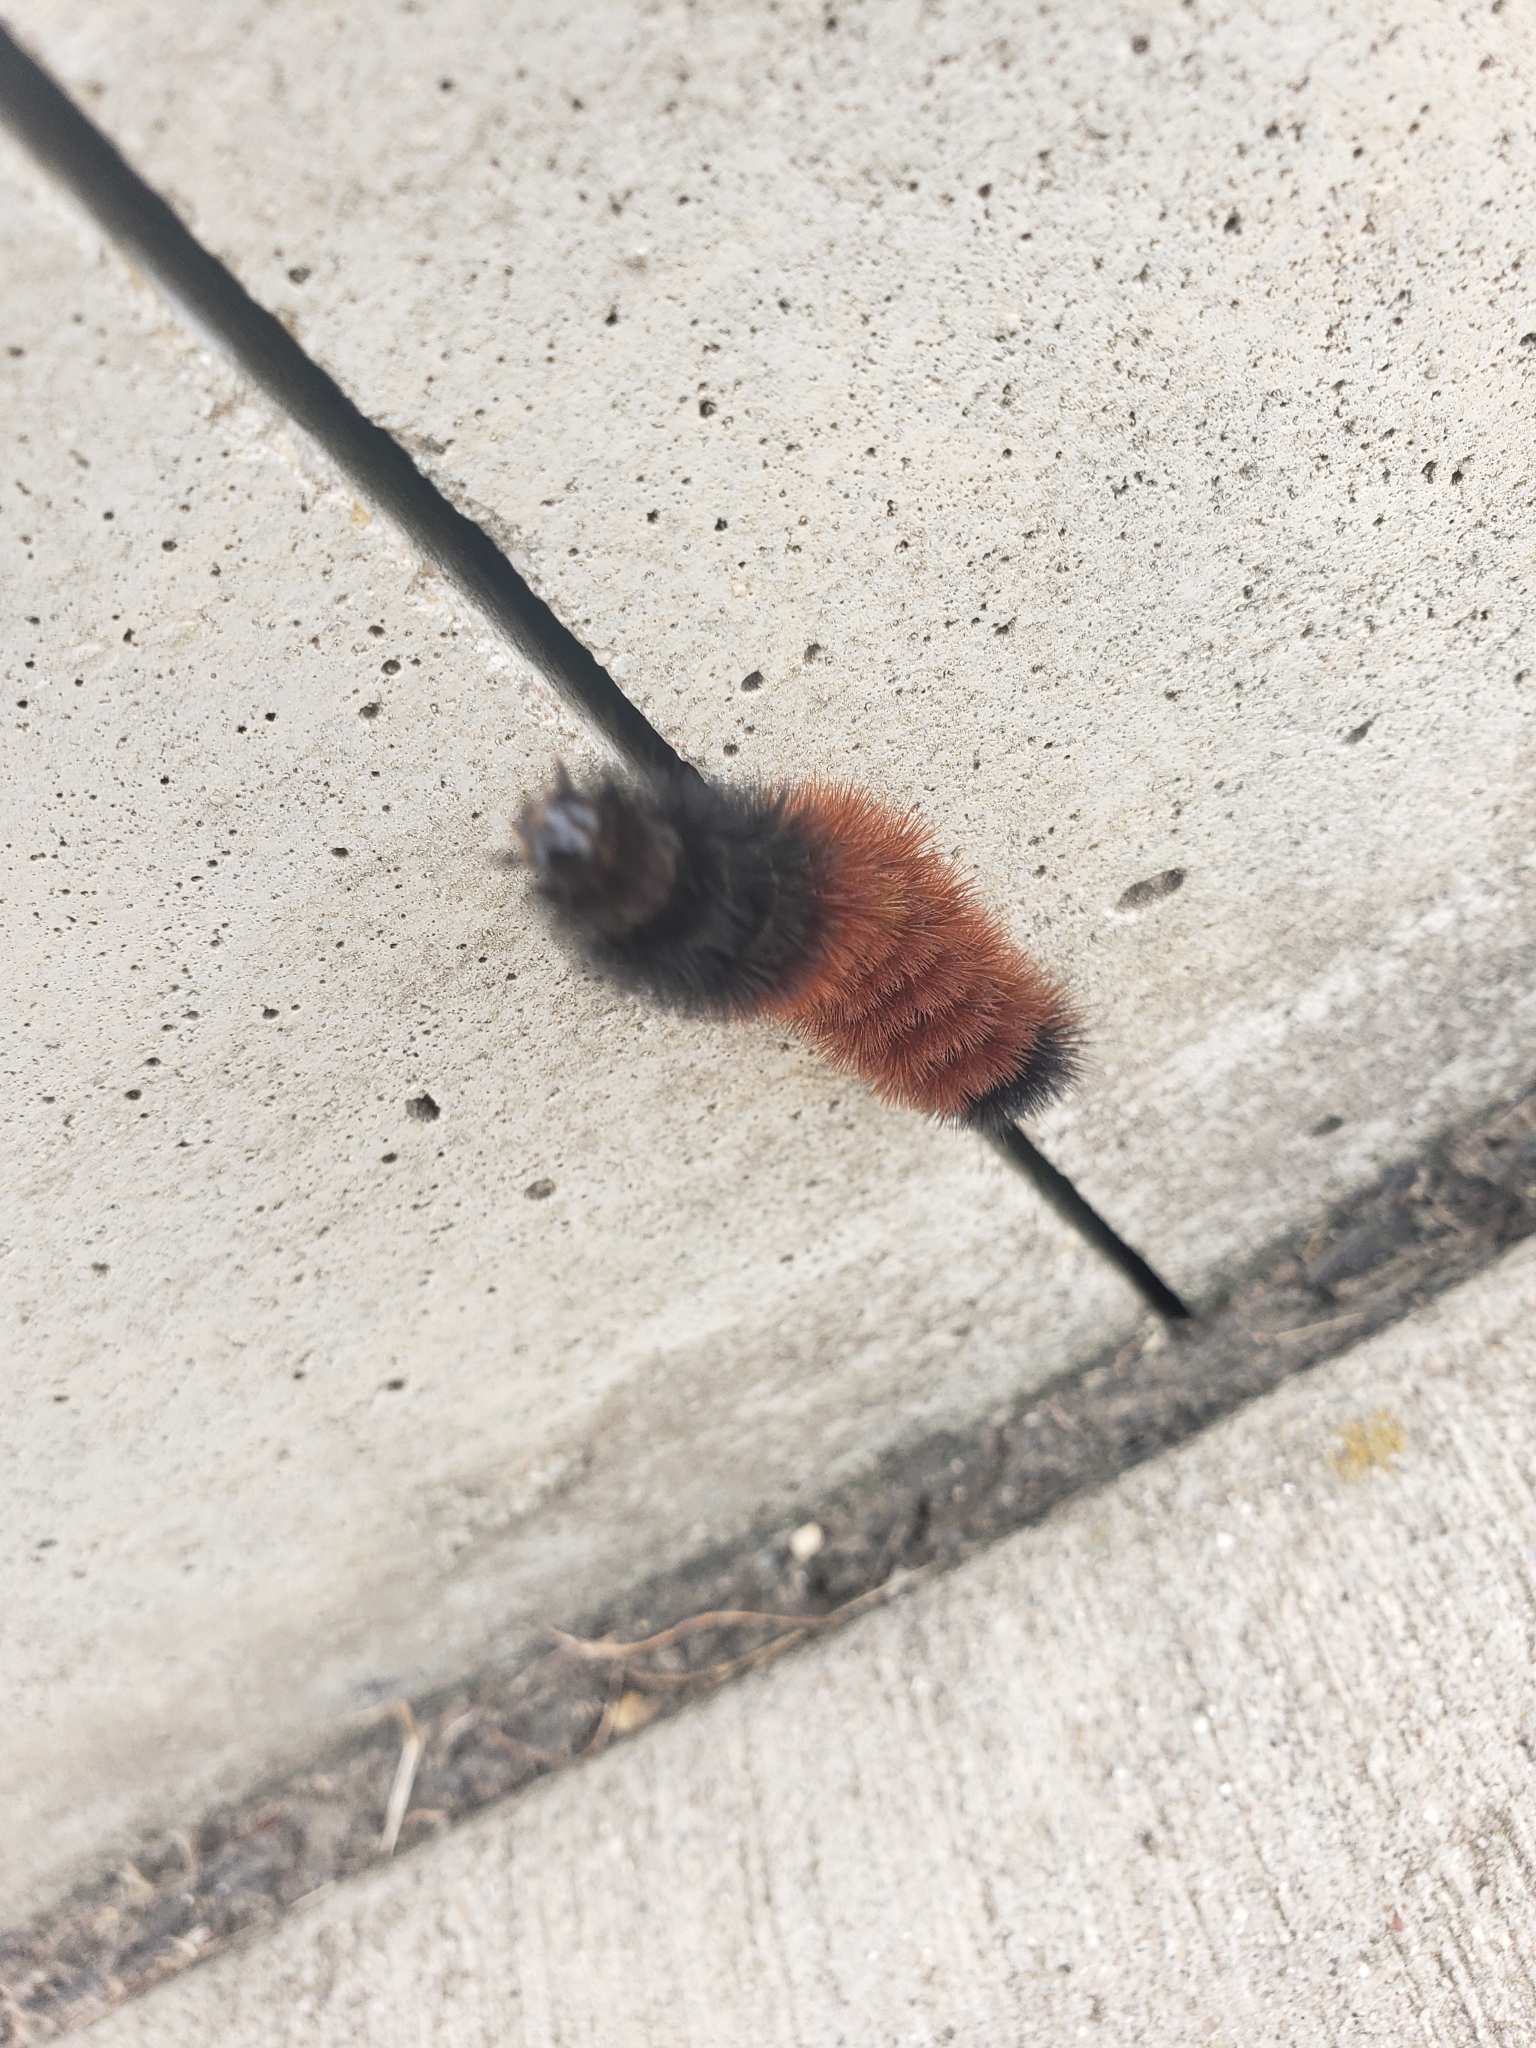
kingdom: Animalia
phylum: Arthropoda
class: Insecta
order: Lepidoptera
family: Erebidae
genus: Pyrrharctia
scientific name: Pyrrharctia isabella
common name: Isabella tiger moth
